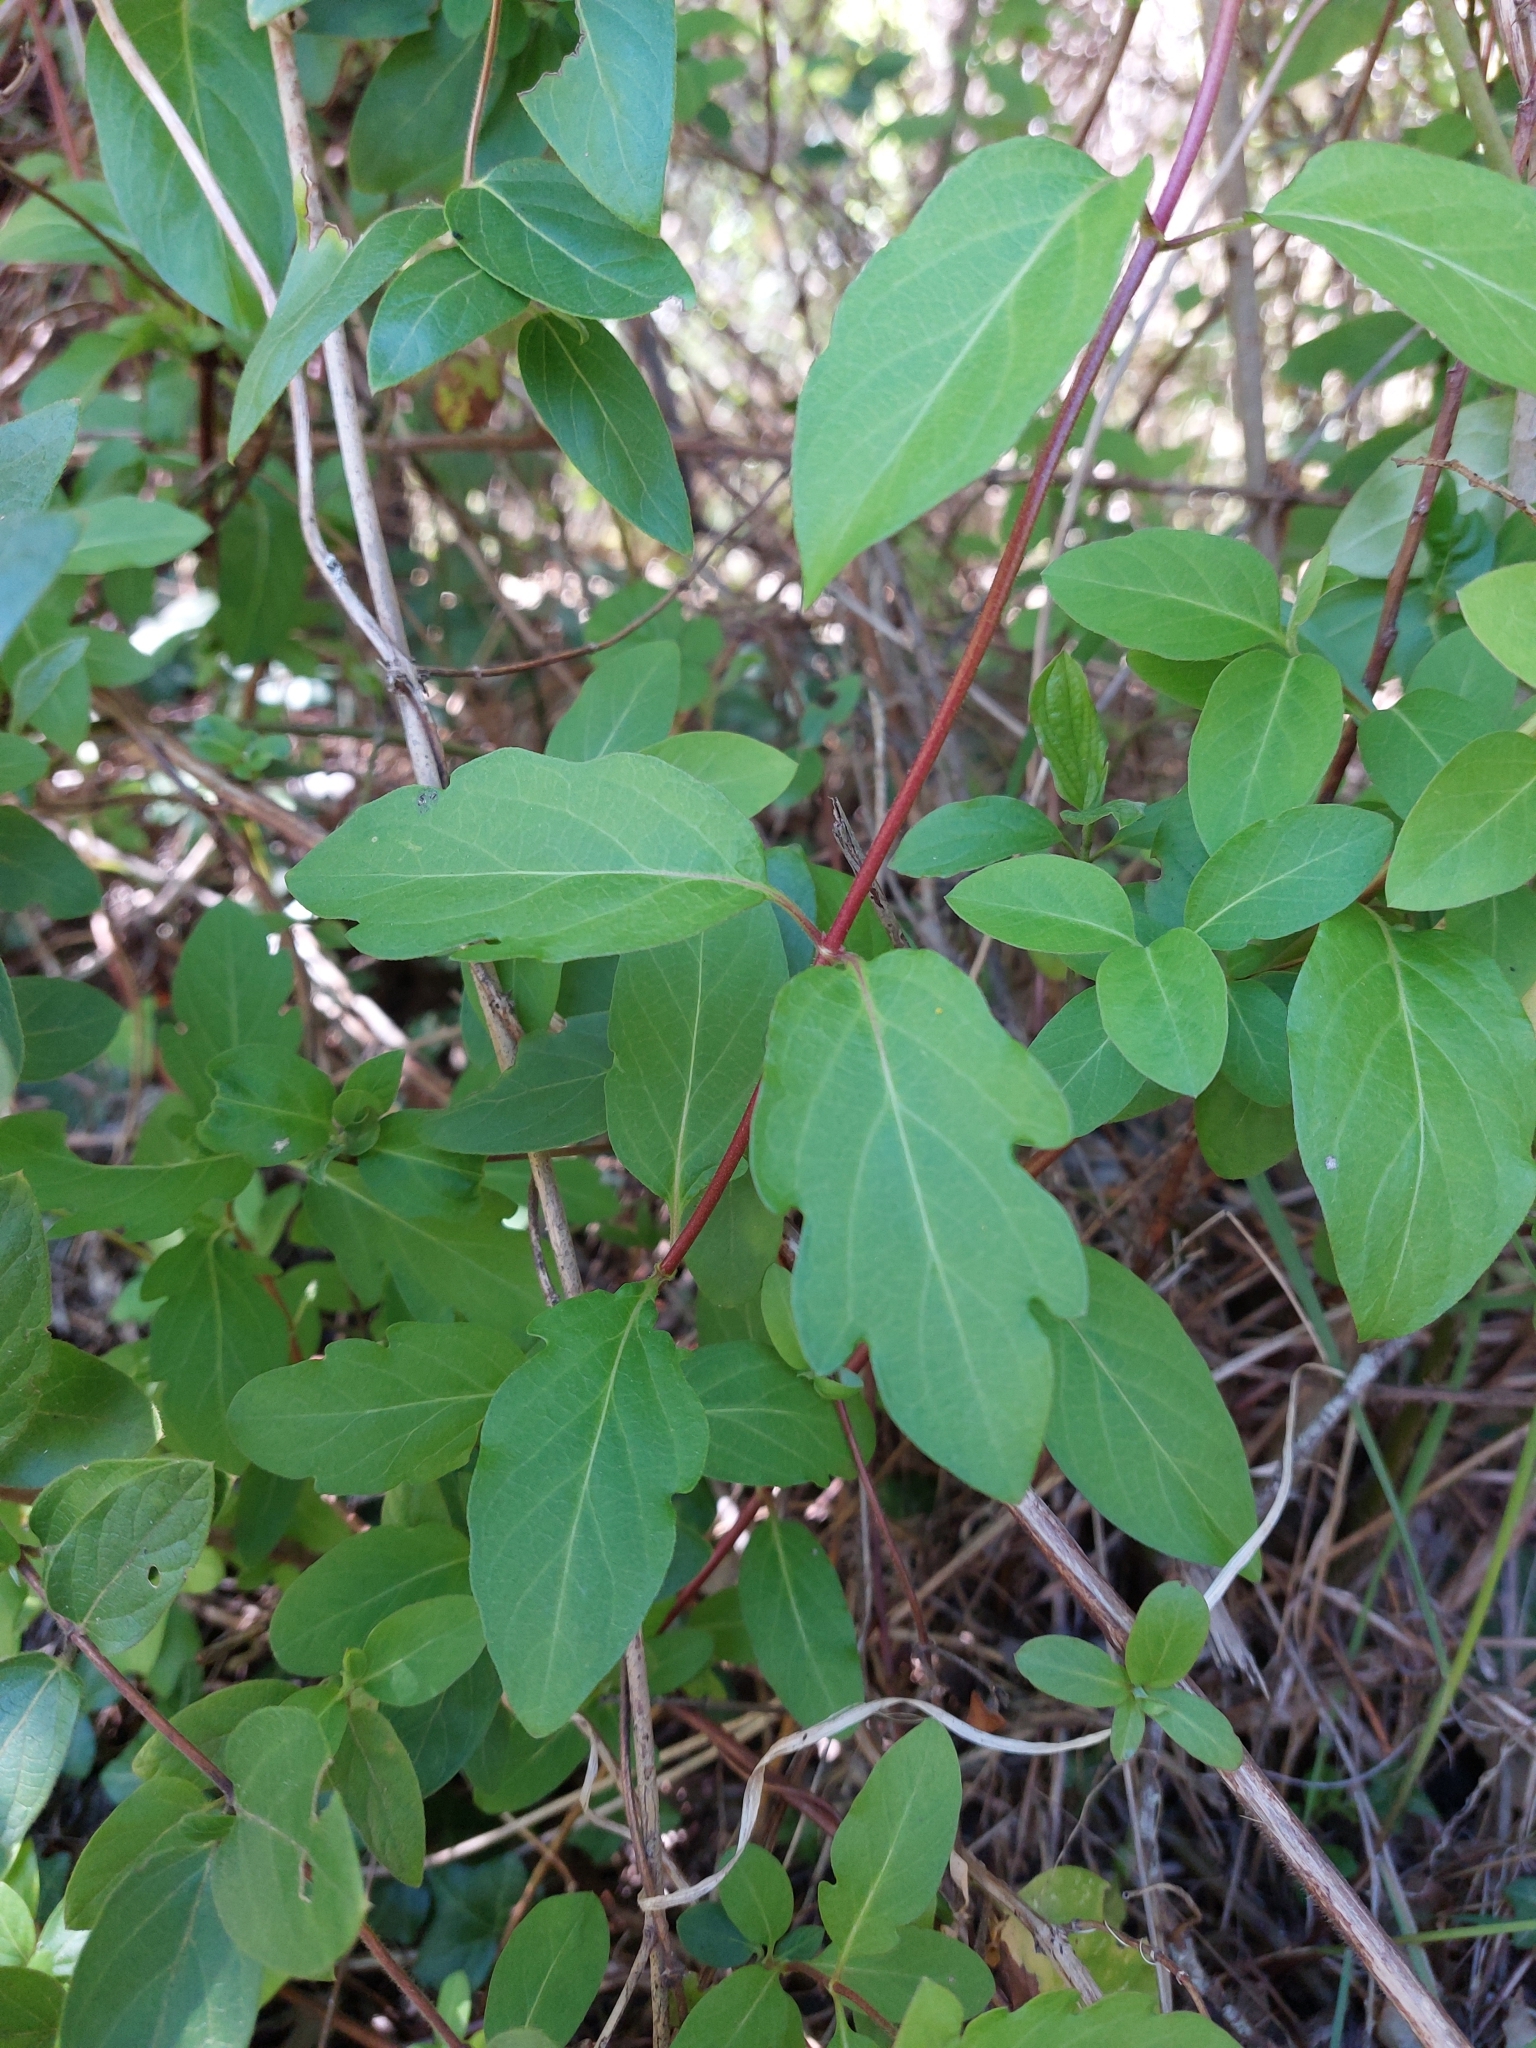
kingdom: Plantae
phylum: Tracheophyta
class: Magnoliopsida
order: Dipsacales
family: Caprifoliaceae
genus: Lonicera
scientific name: Lonicera japonica
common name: Japanese honeysuckle
